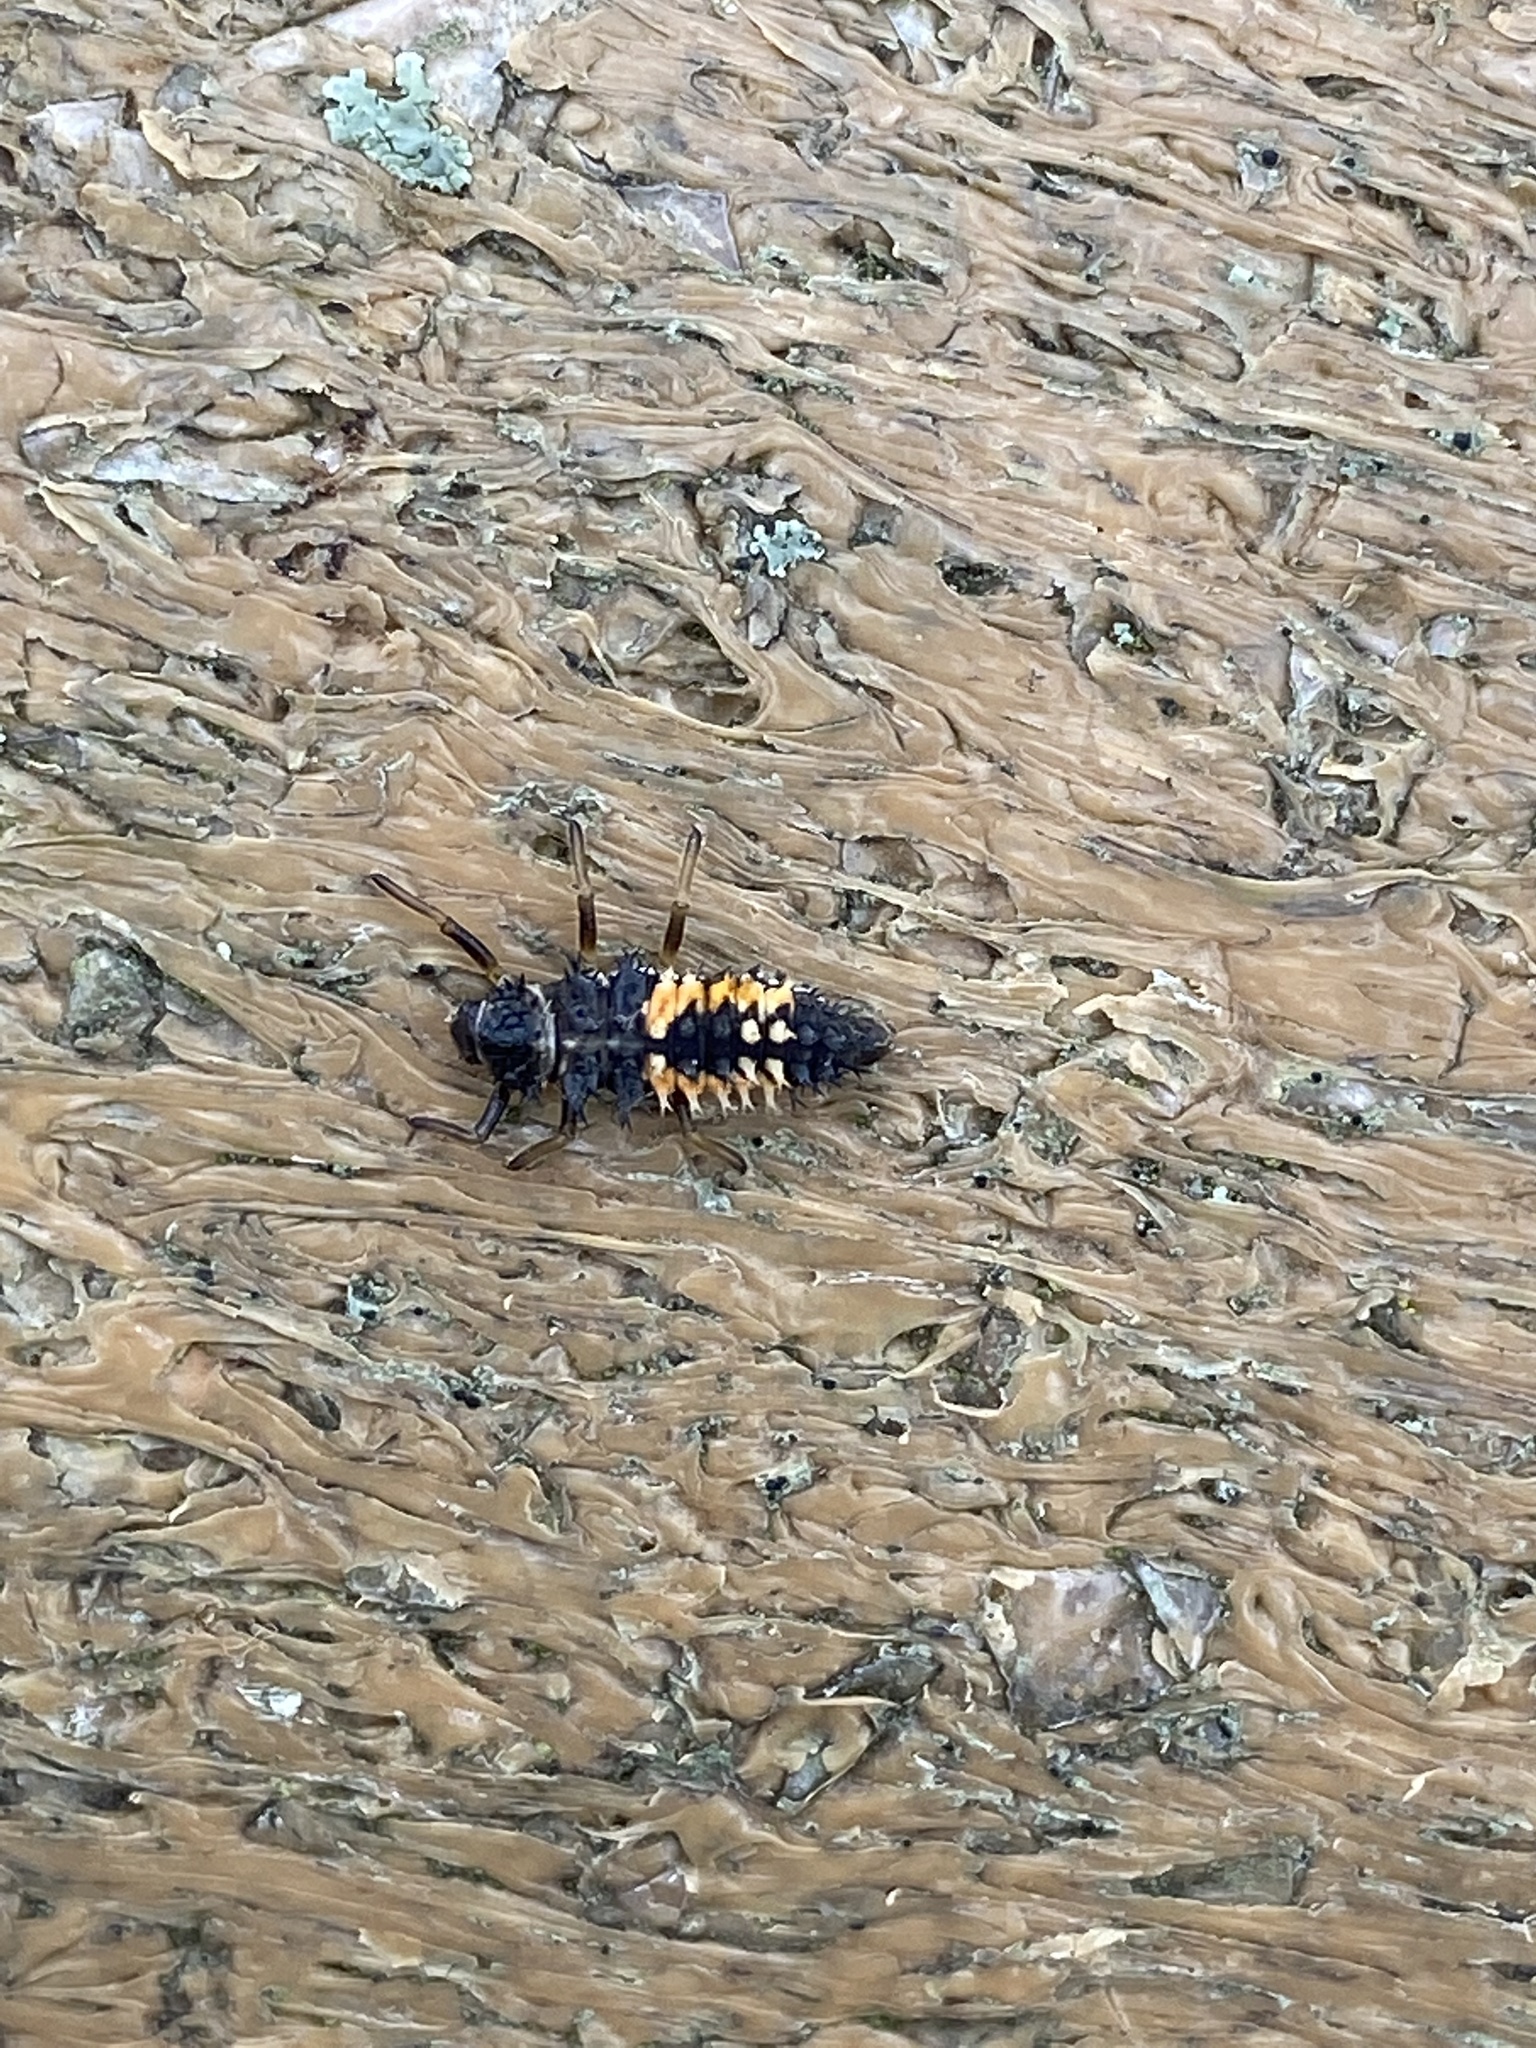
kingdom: Animalia
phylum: Arthropoda
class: Insecta
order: Coleoptera
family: Coccinellidae
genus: Harmonia
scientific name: Harmonia axyridis
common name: Harlequin ladybird
